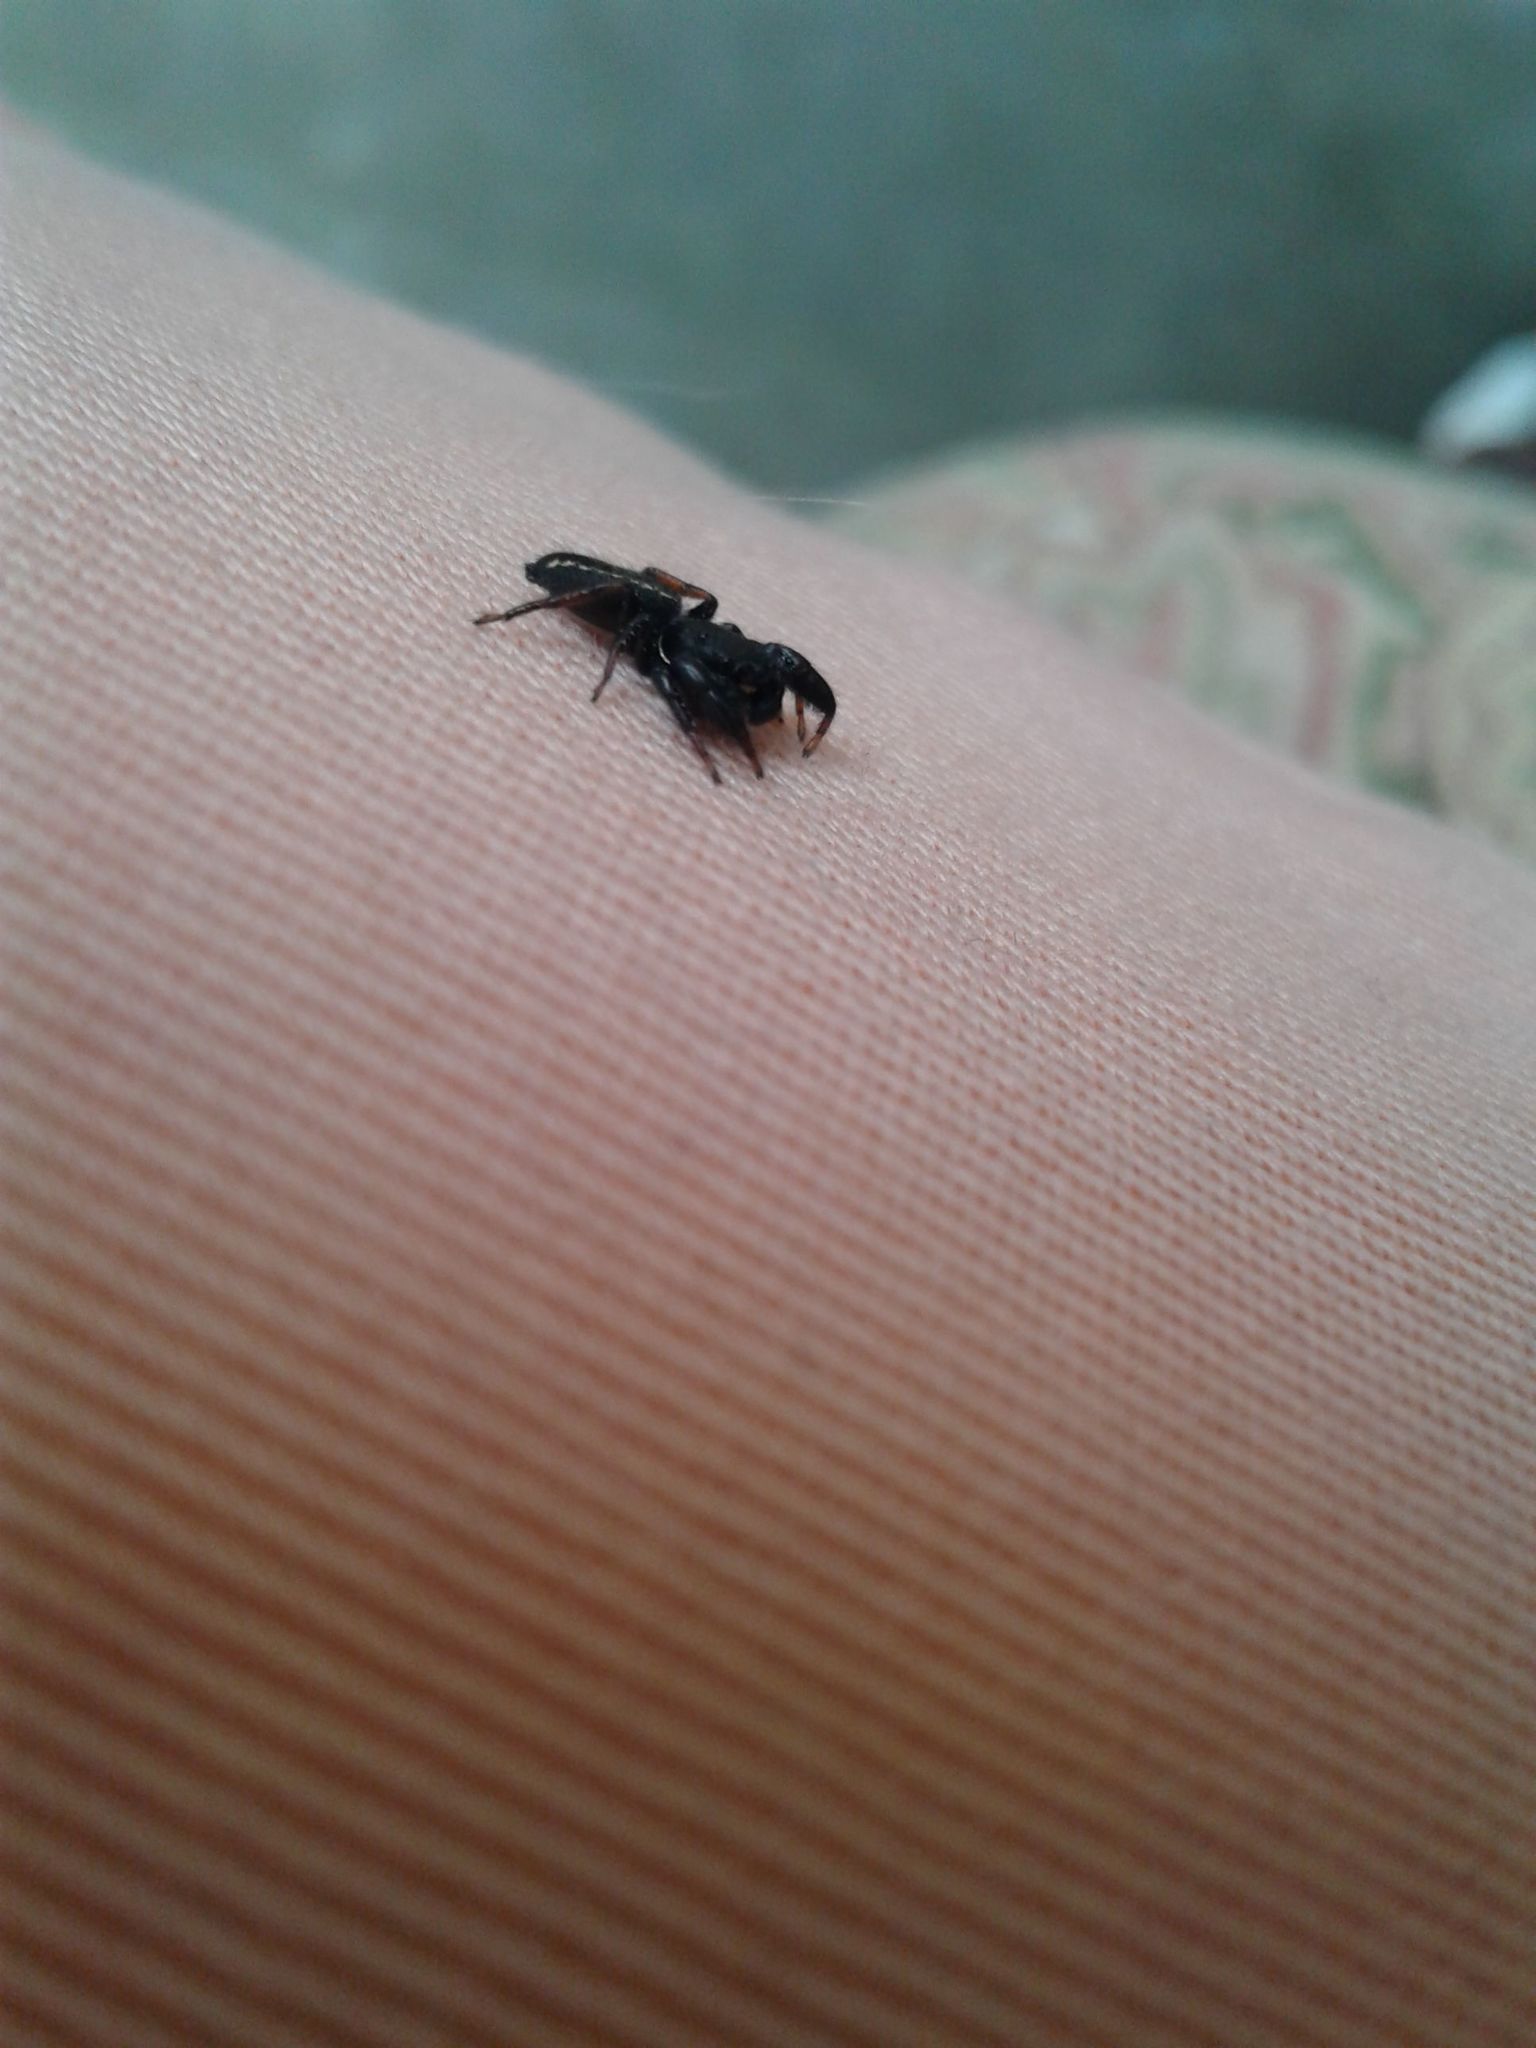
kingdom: Animalia
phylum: Arthropoda
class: Arachnida
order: Araneae
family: Salticidae
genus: Metacyrba
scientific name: Metacyrba taeniola
